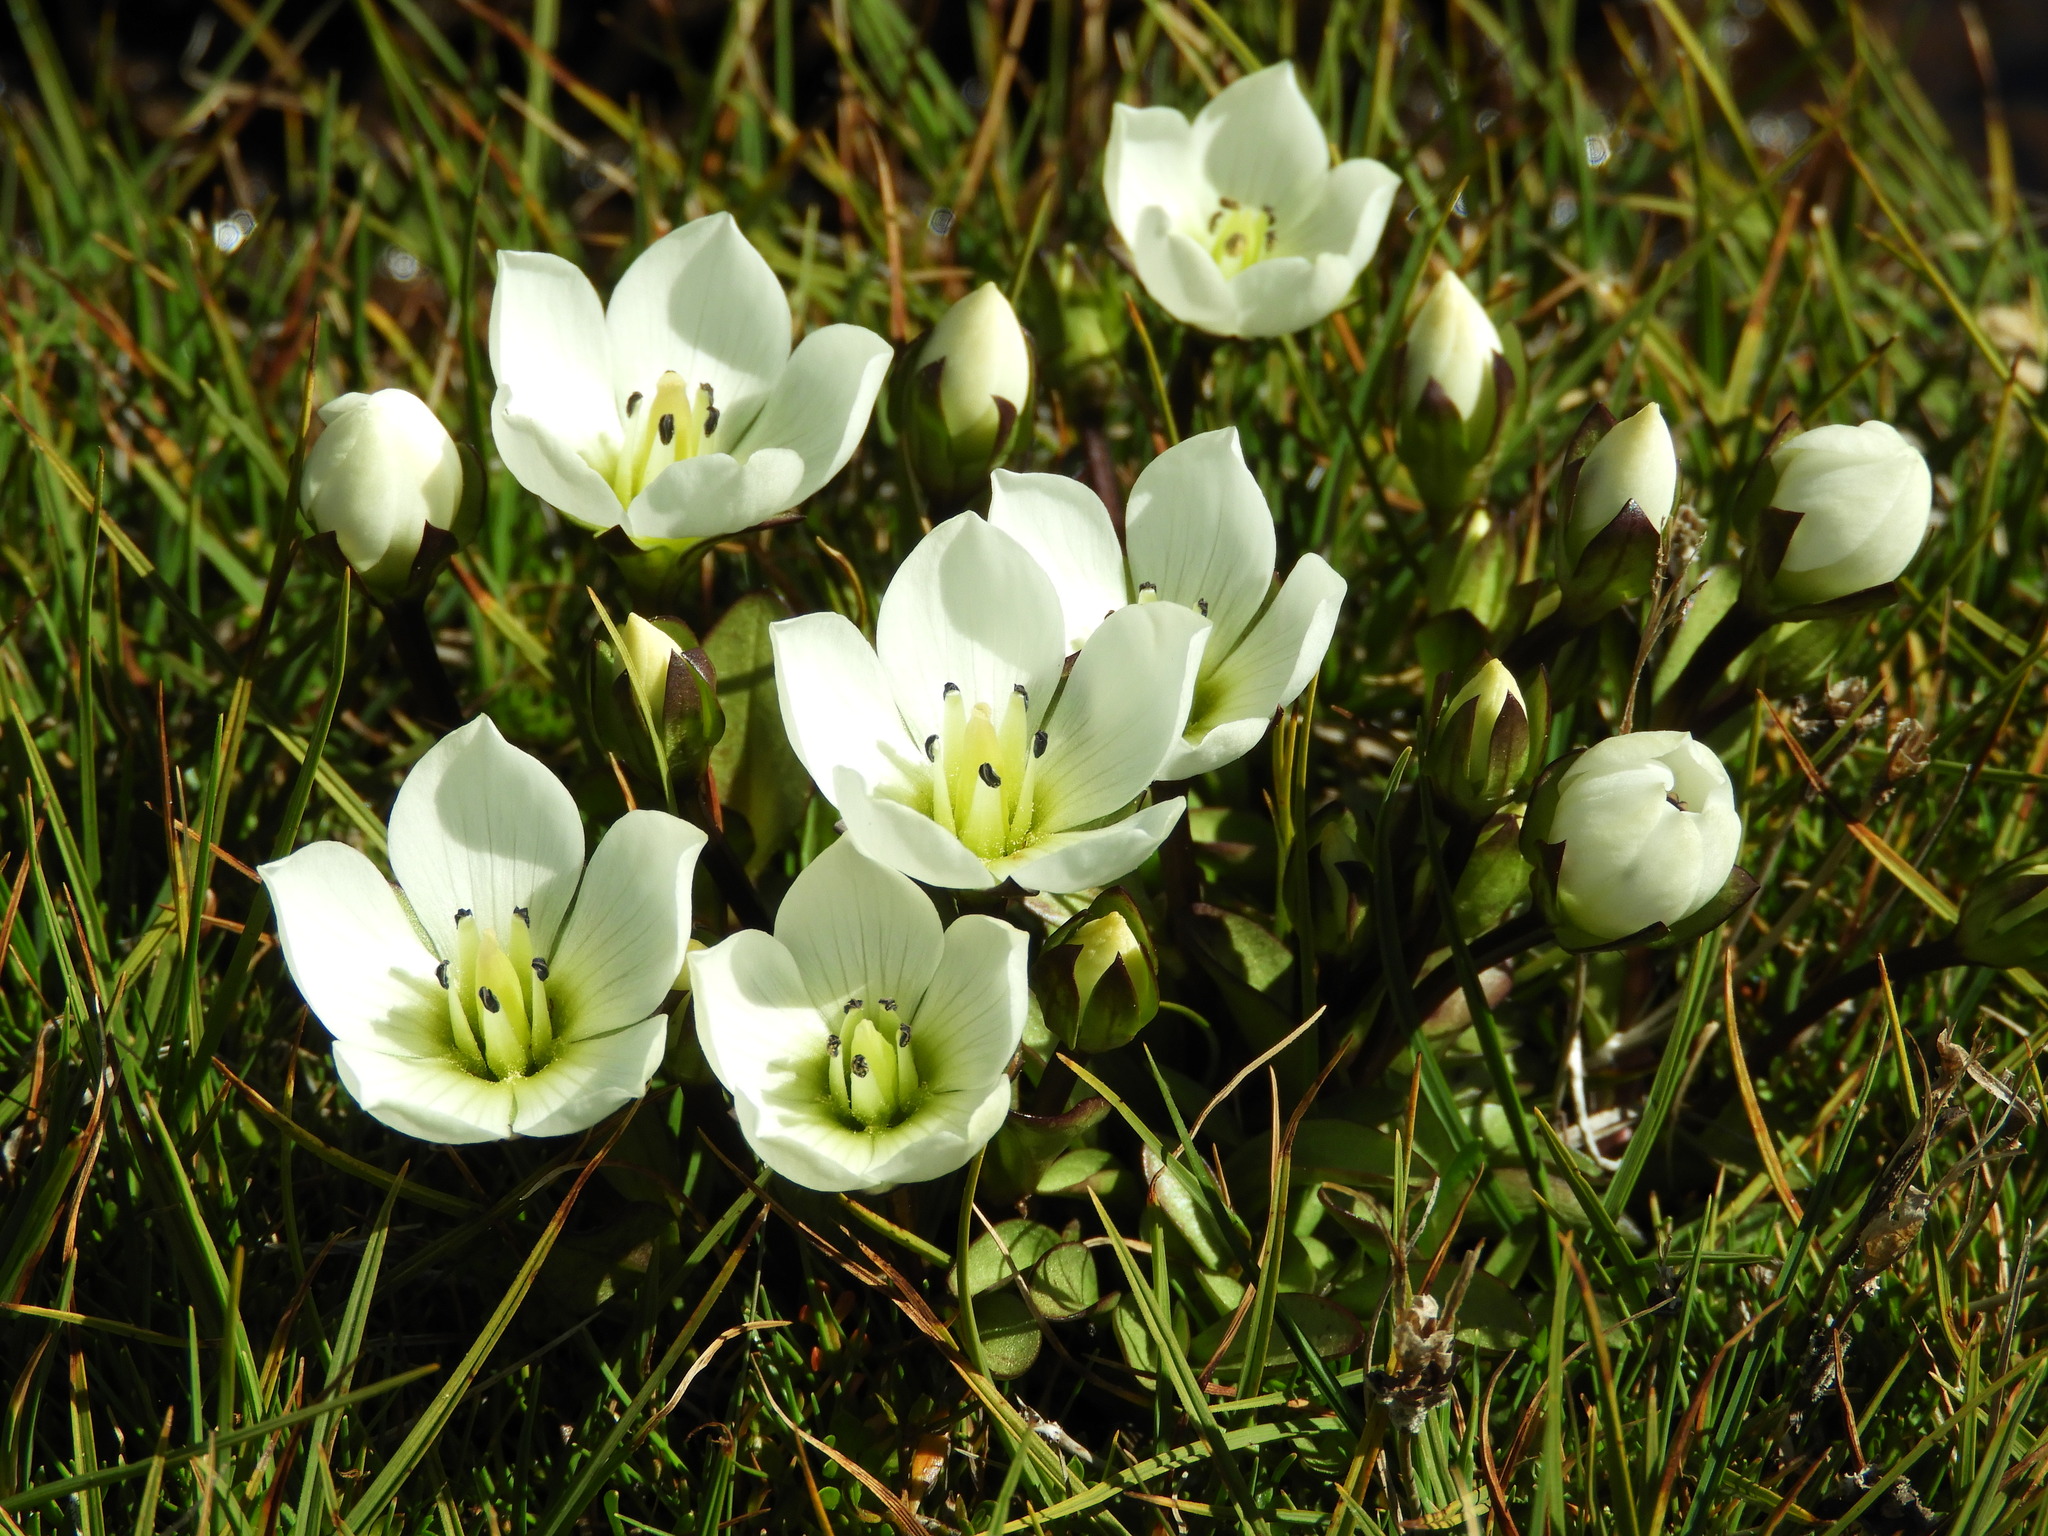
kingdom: Plantae
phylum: Tracheophyta
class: Magnoliopsida
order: Gentianales
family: Gentianaceae
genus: Gentianella
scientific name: Gentianella bellidifolia
